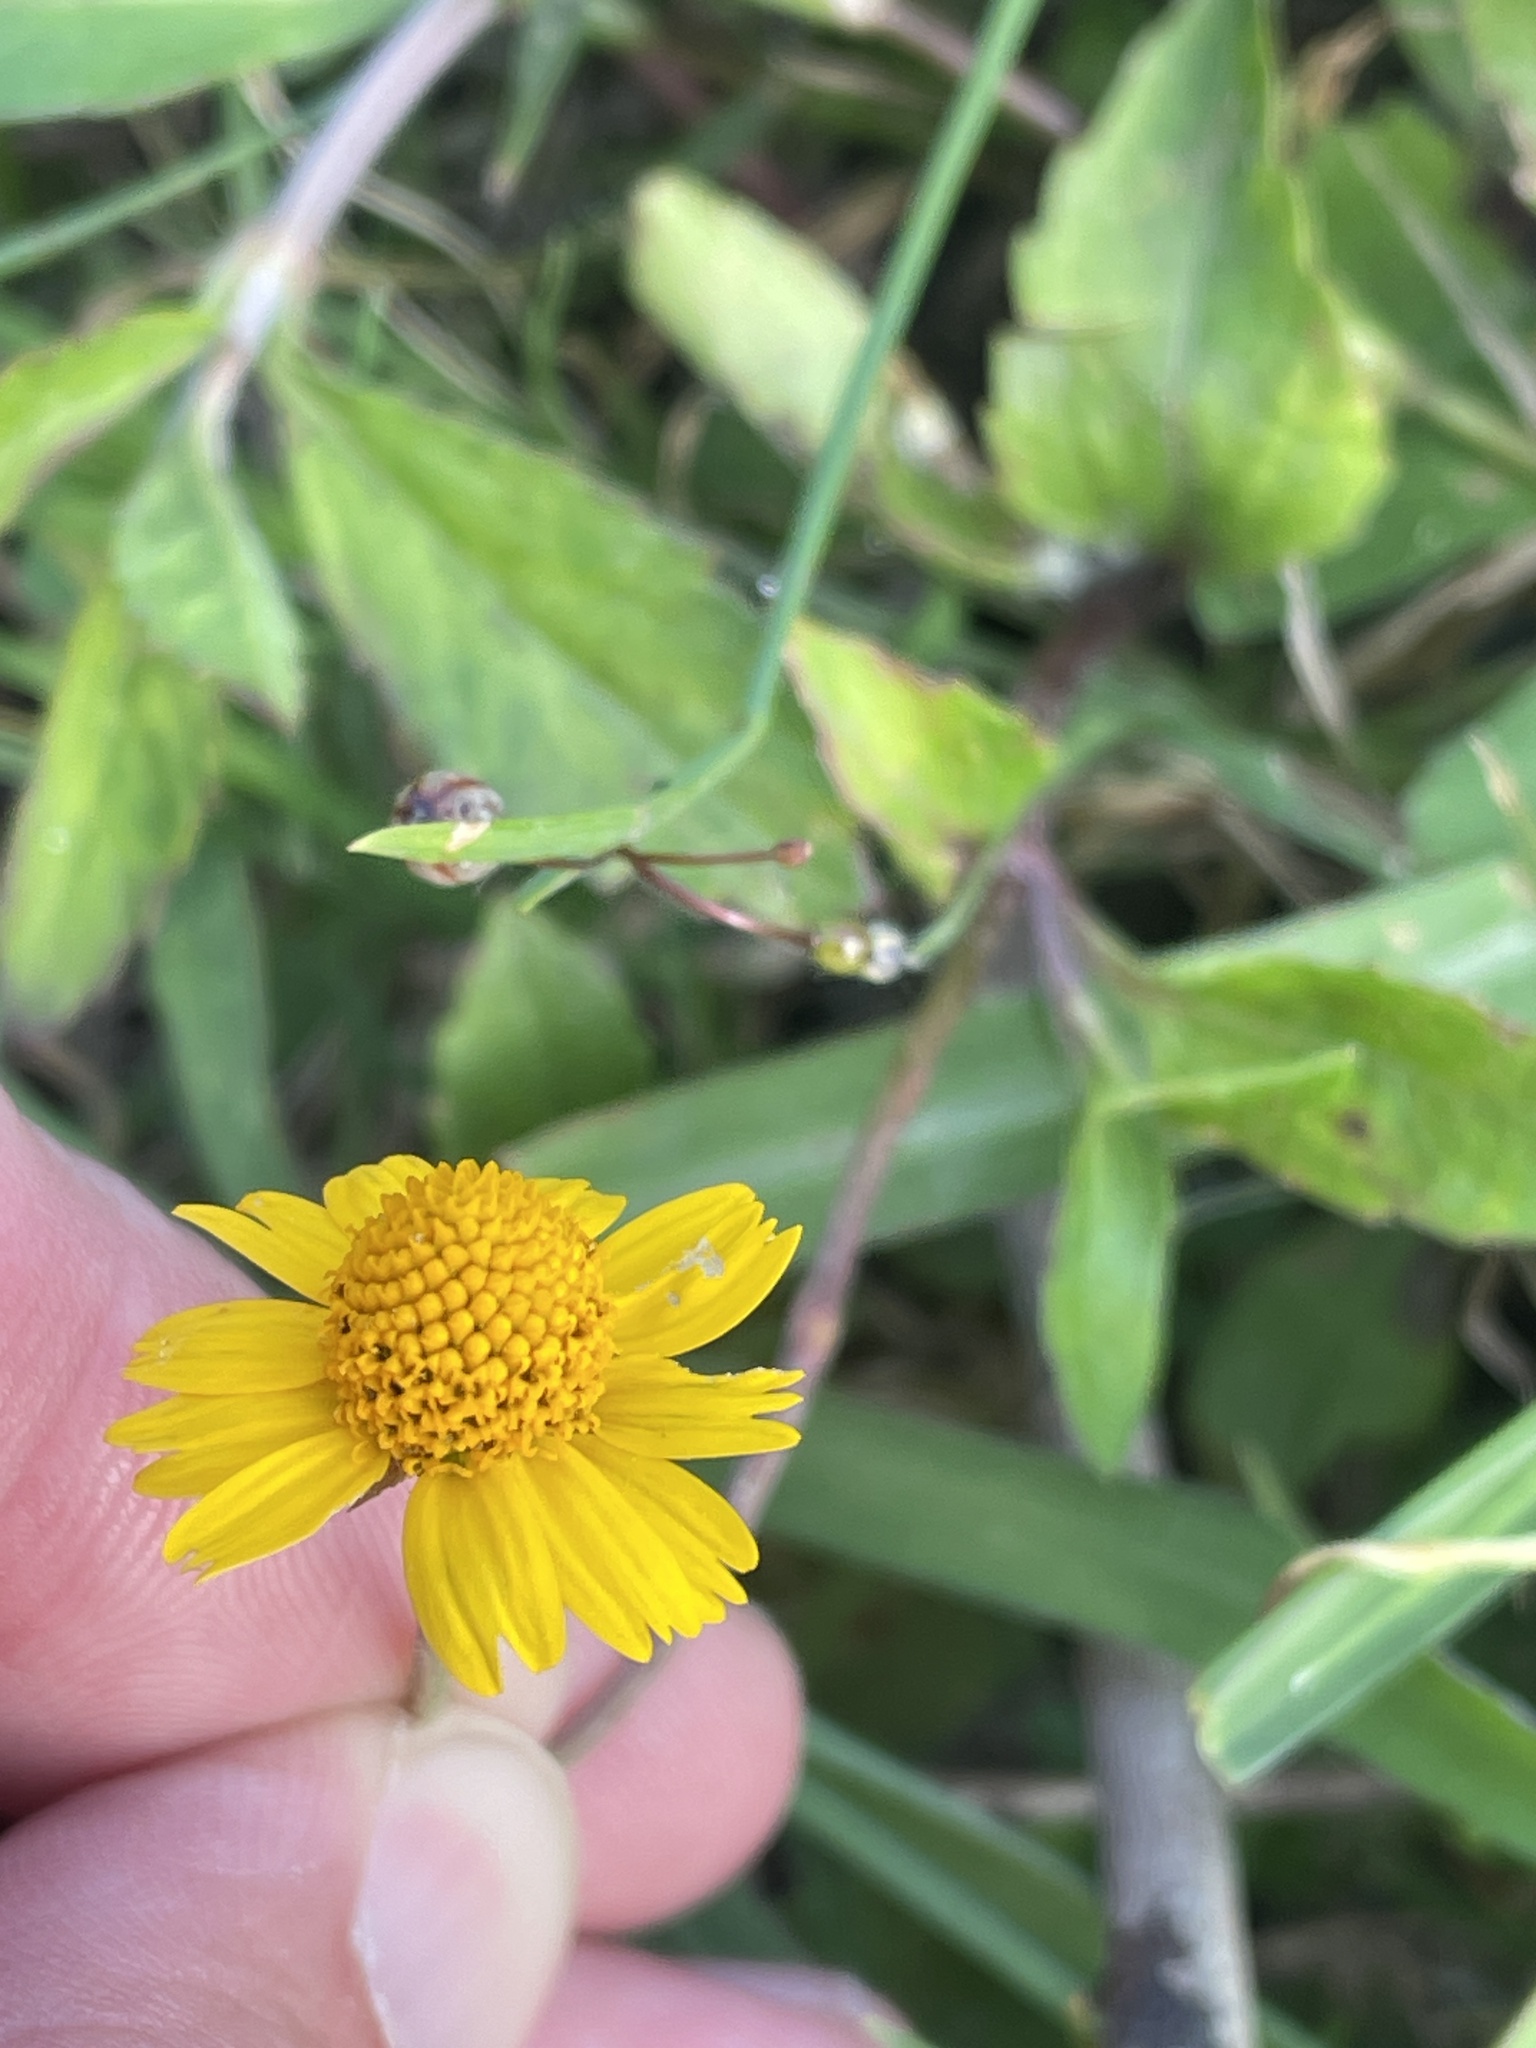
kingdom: Plantae
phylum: Tracheophyta
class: Magnoliopsida
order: Asterales
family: Asteraceae
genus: Acmella
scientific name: Acmella repens
